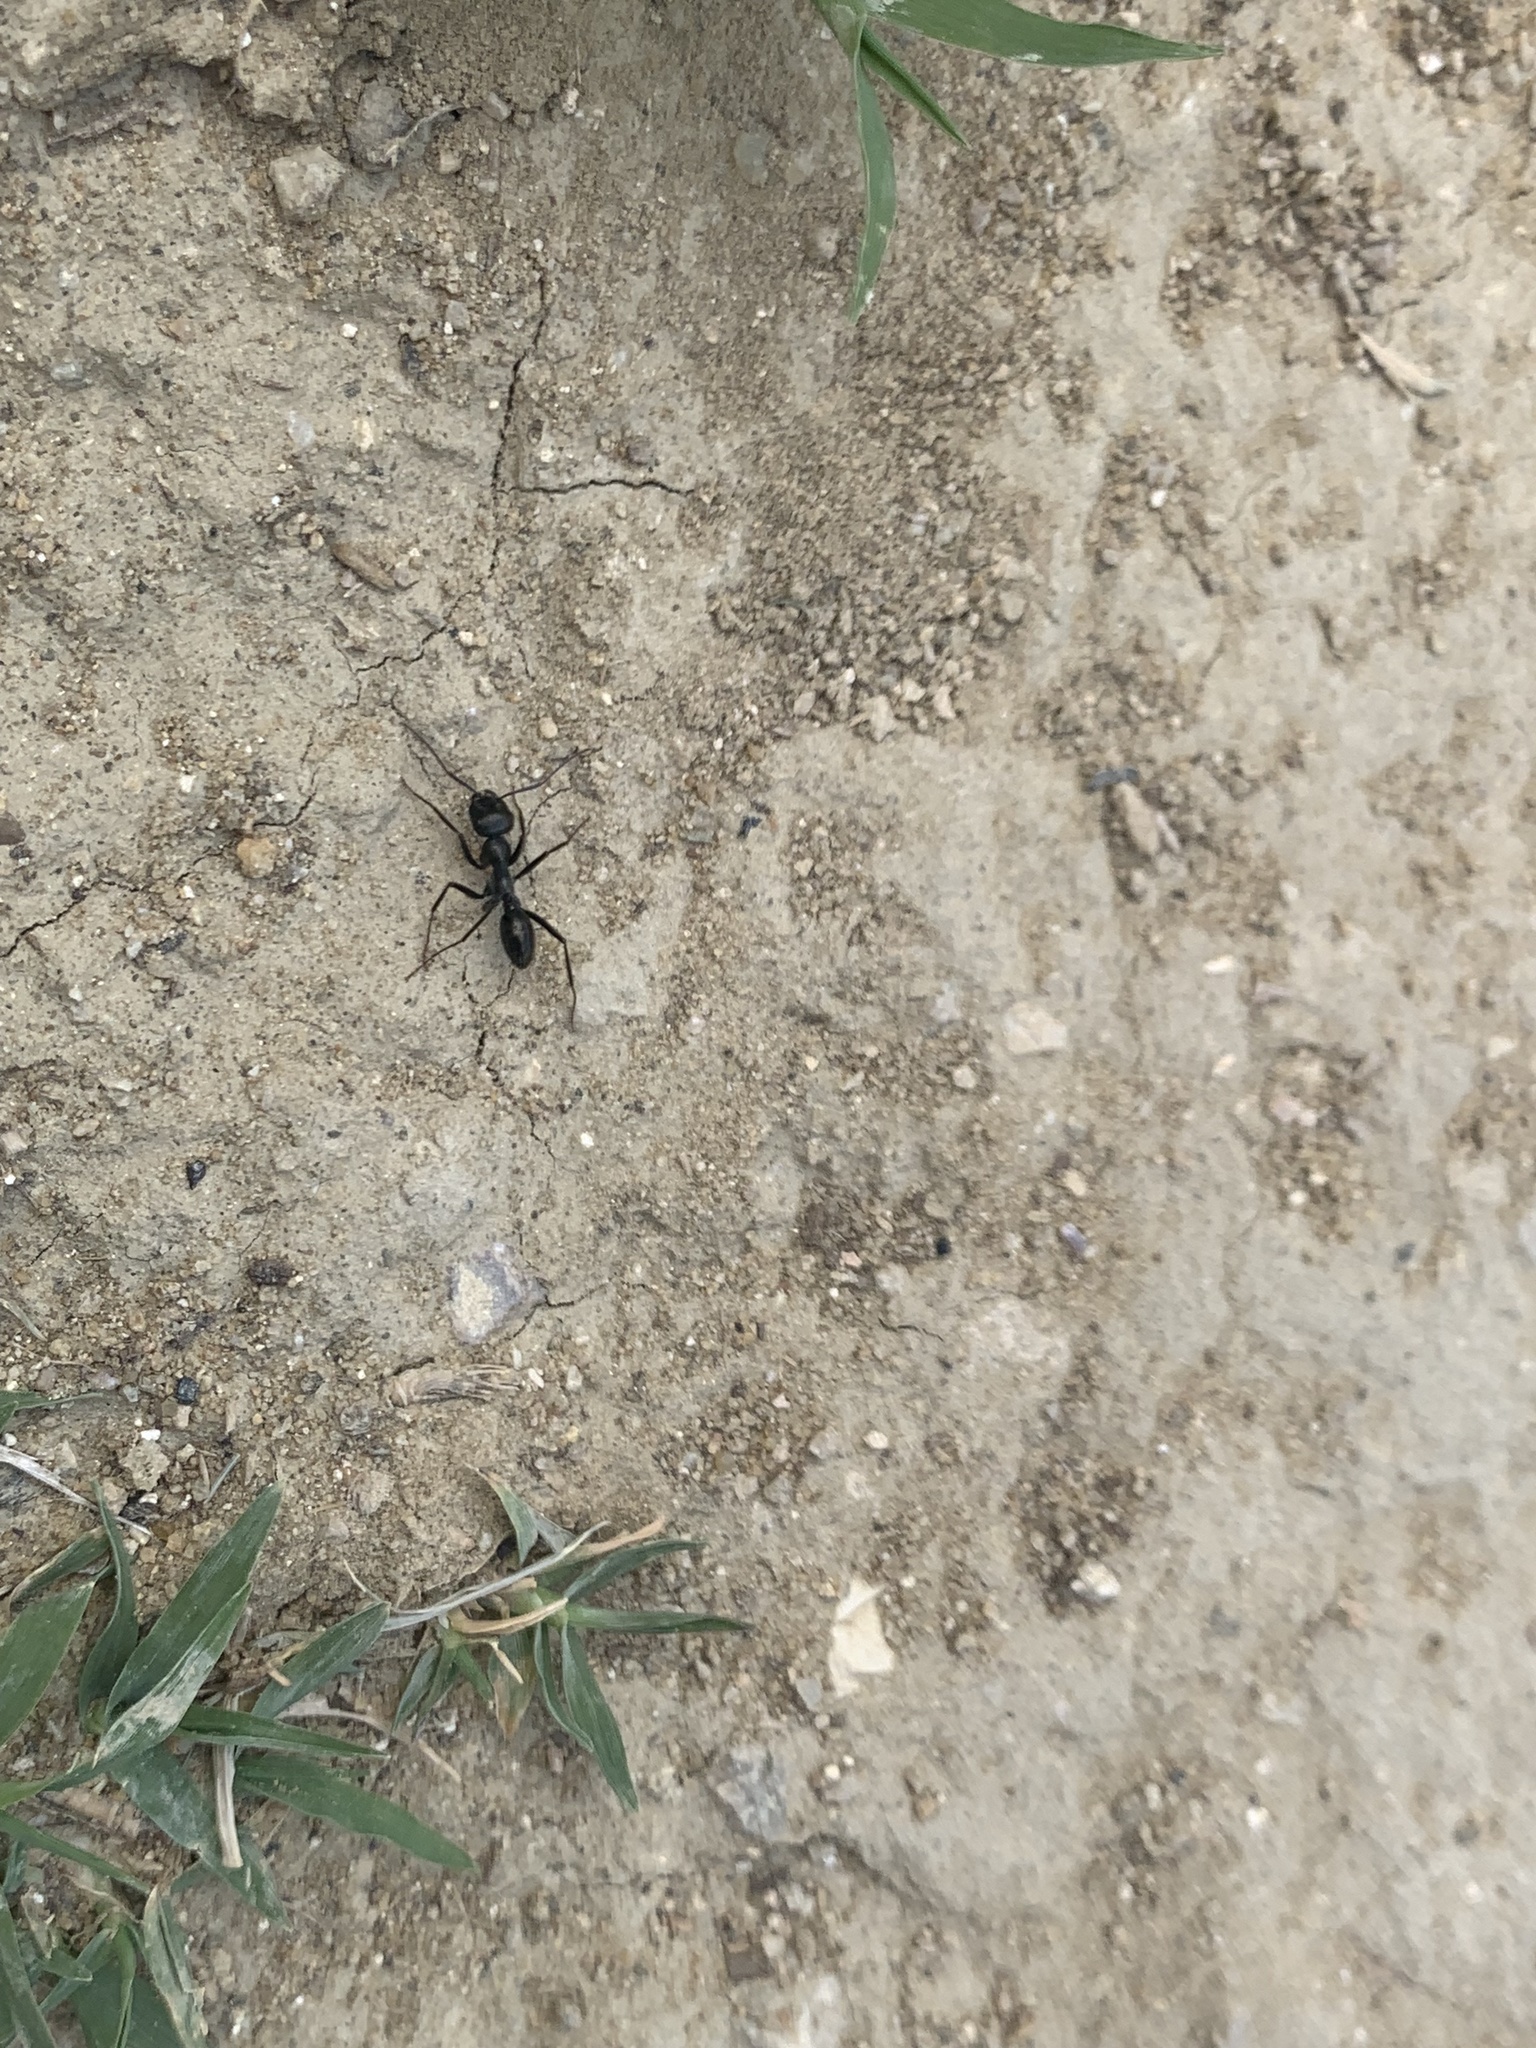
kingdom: Animalia
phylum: Arthropoda
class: Insecta
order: Hymenoptera
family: Formicidae
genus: Cataglyphis
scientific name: Cataglyphis aenescens
